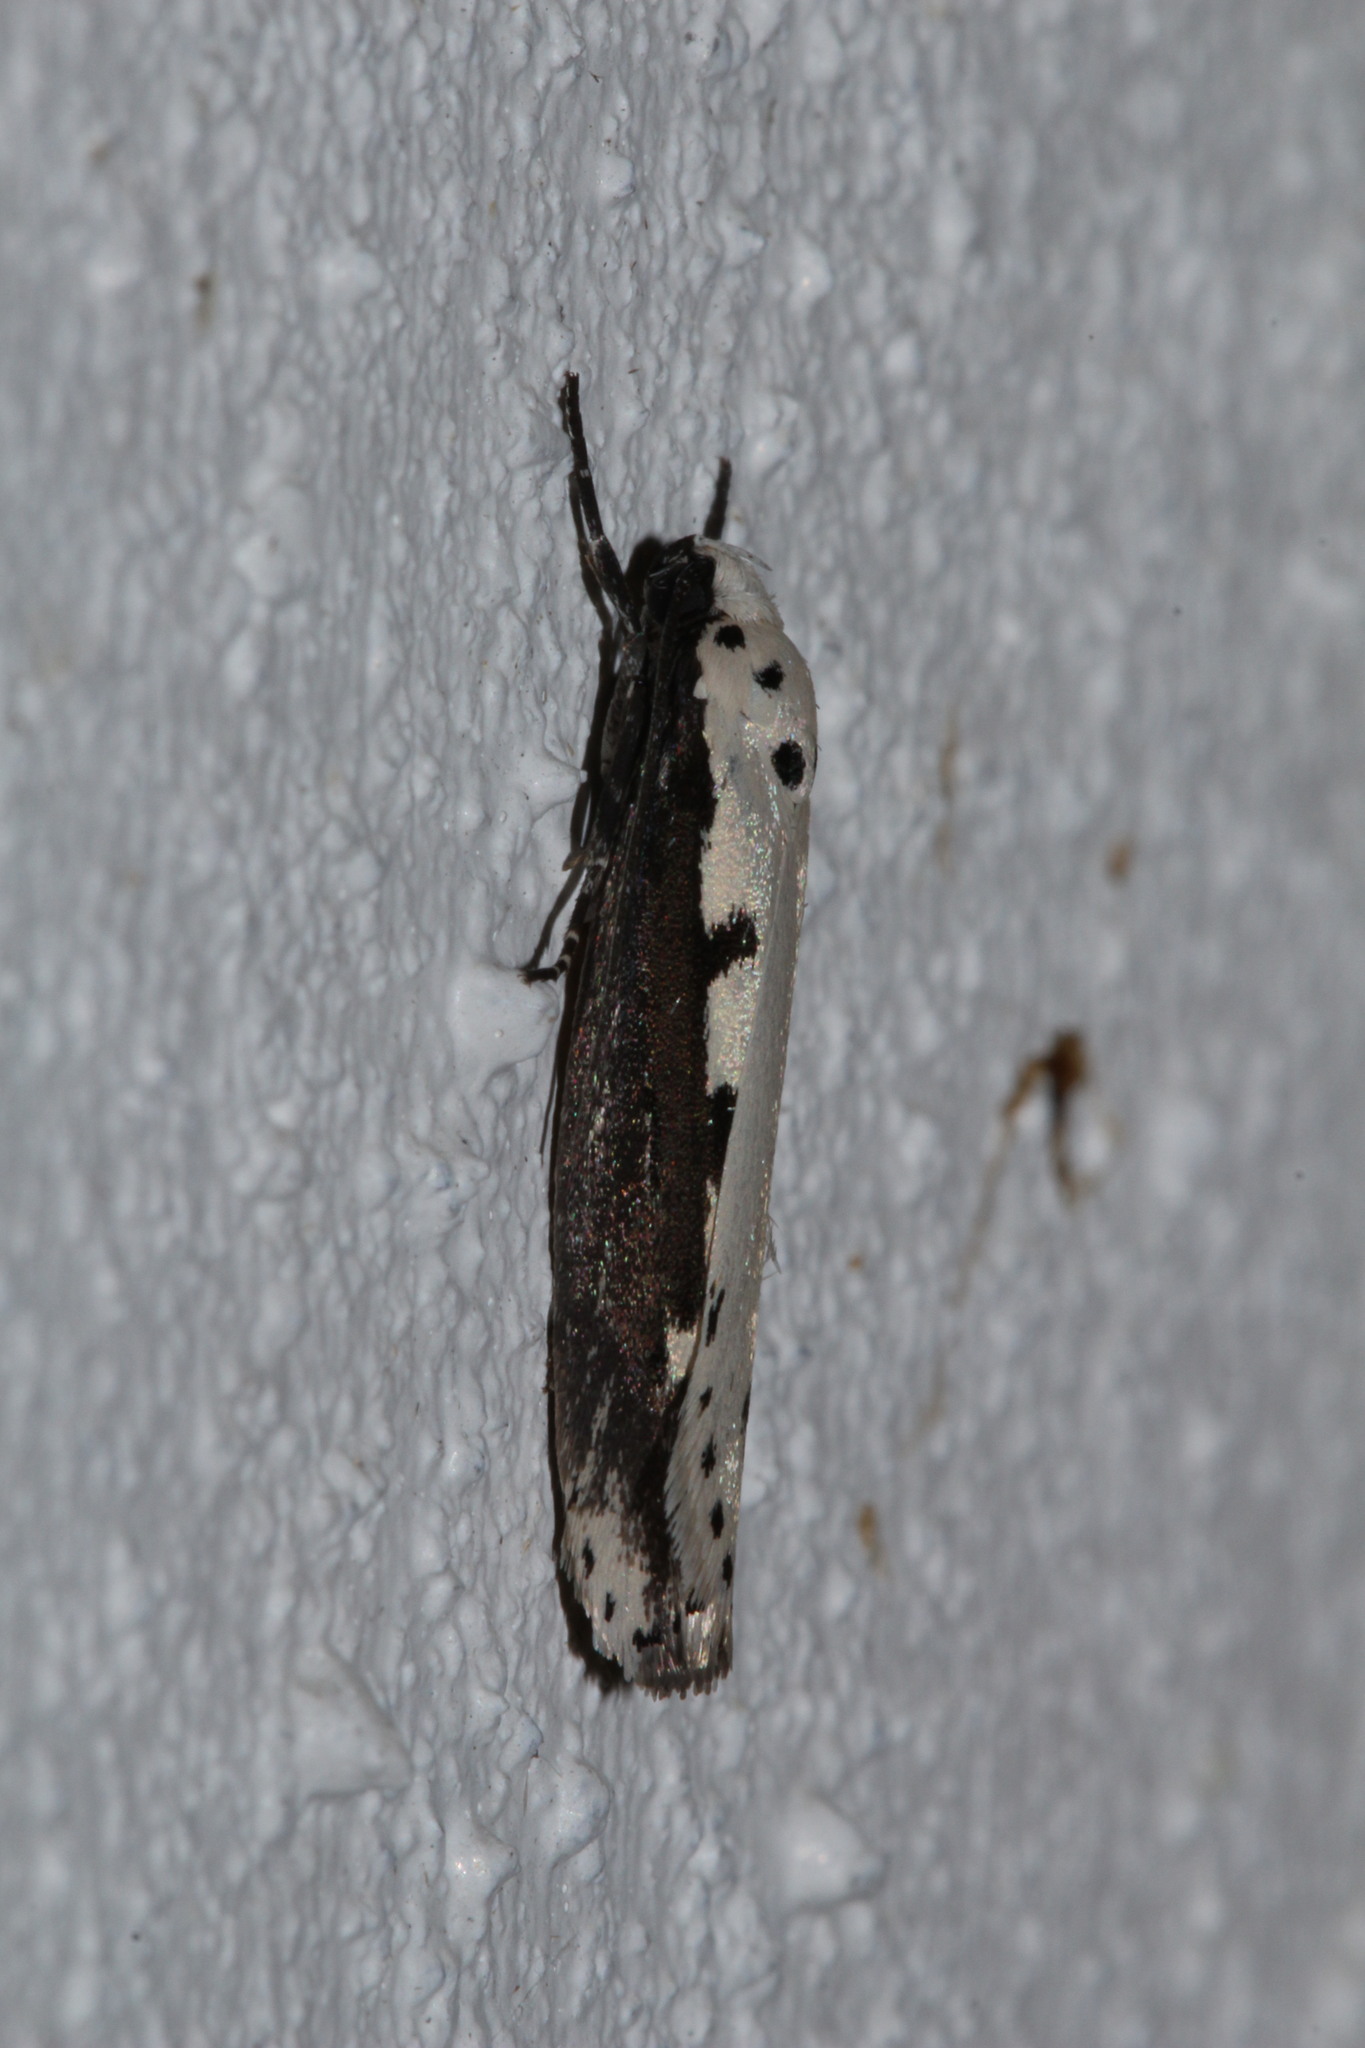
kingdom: Animalia
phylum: Arthropoda
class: Insecta
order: Lepidoptera
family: Ethmiidae
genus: Ethmia
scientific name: Ethmia bipunctella
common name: Bordered ermel
